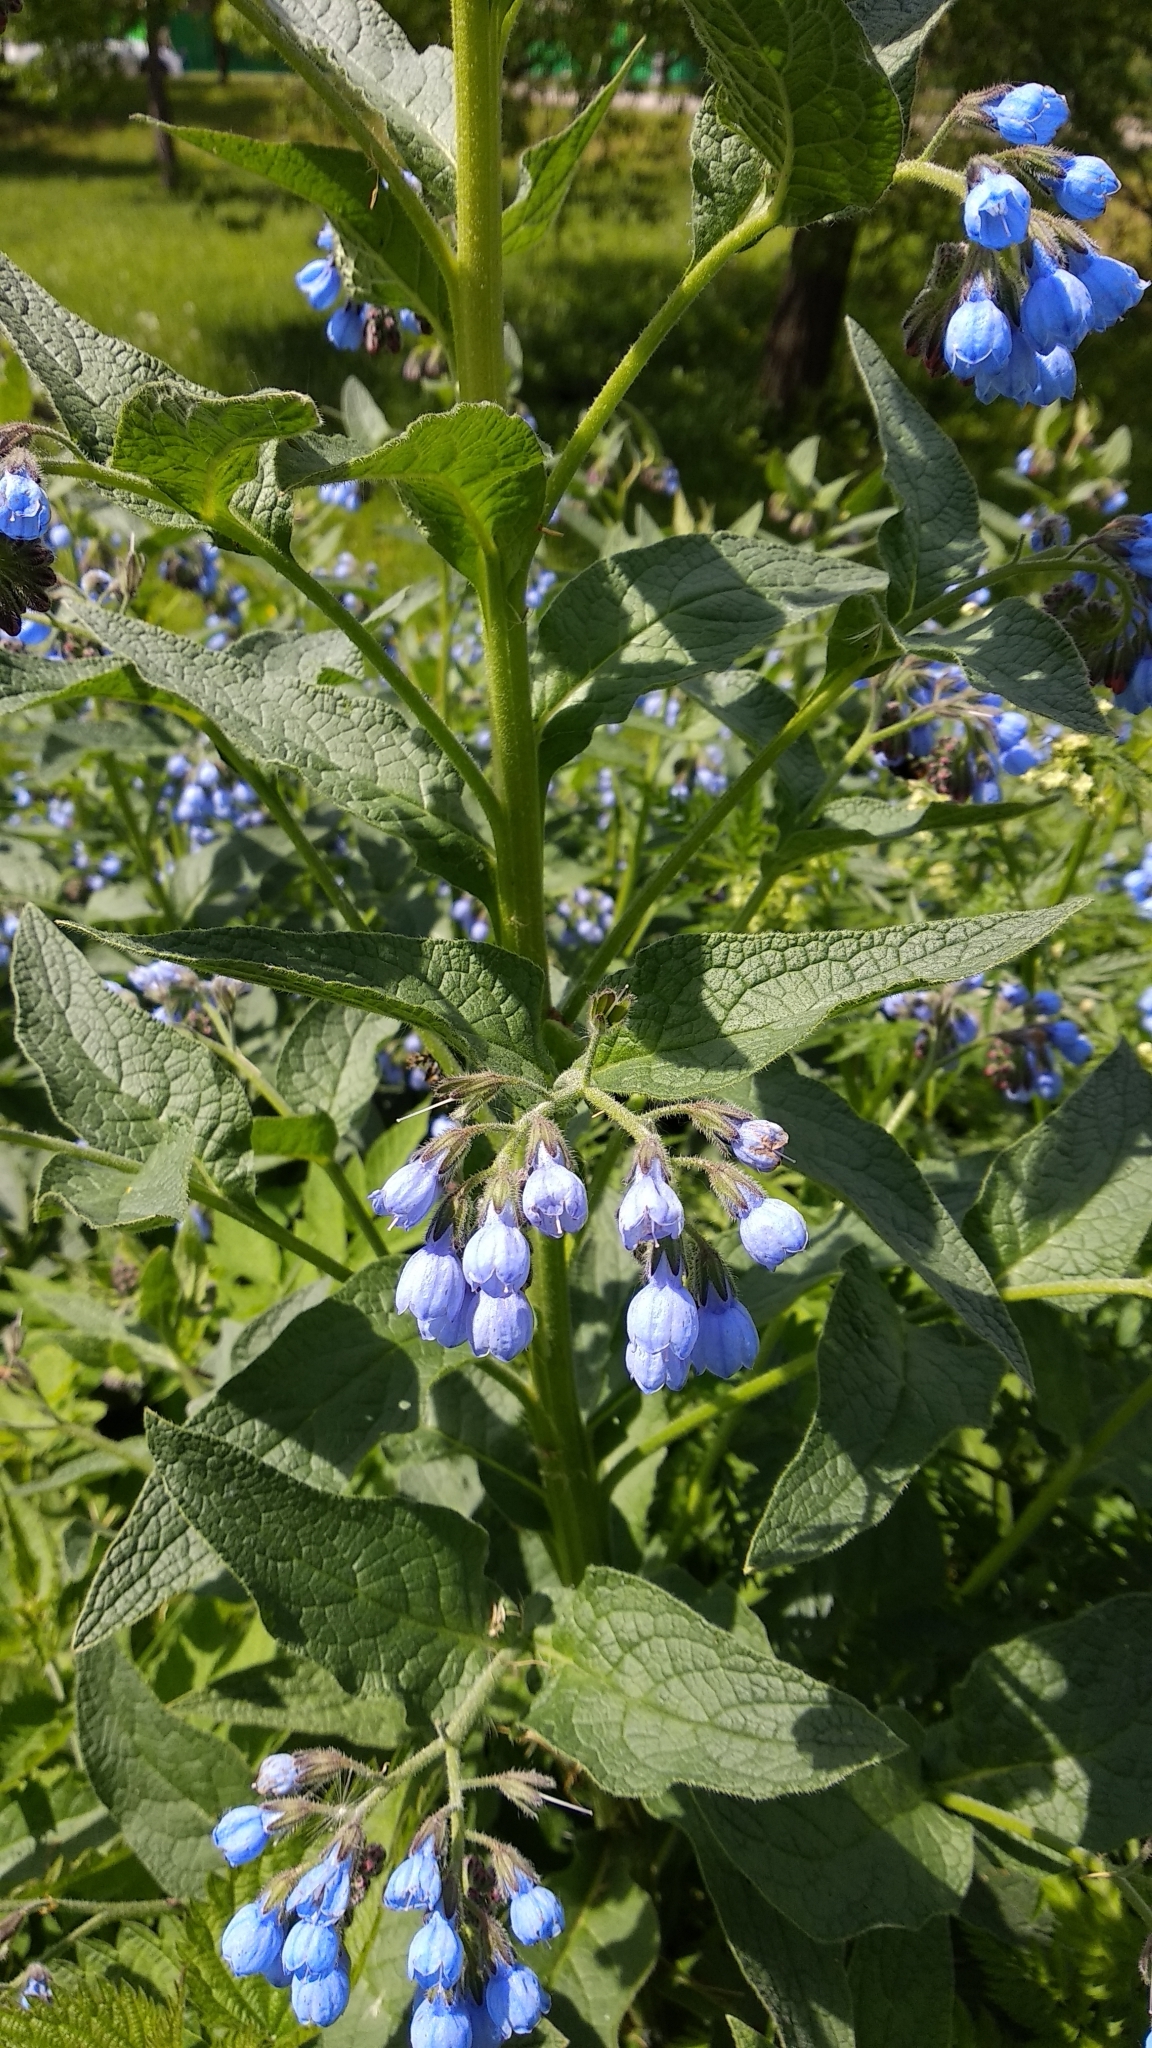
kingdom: Plantae
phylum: Tracheophyta
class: Magnoliopsida
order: Boraginales
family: Boraginaceae
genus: Symphytum
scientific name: Symphytum caucasicum
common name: Caucasian comfrey
